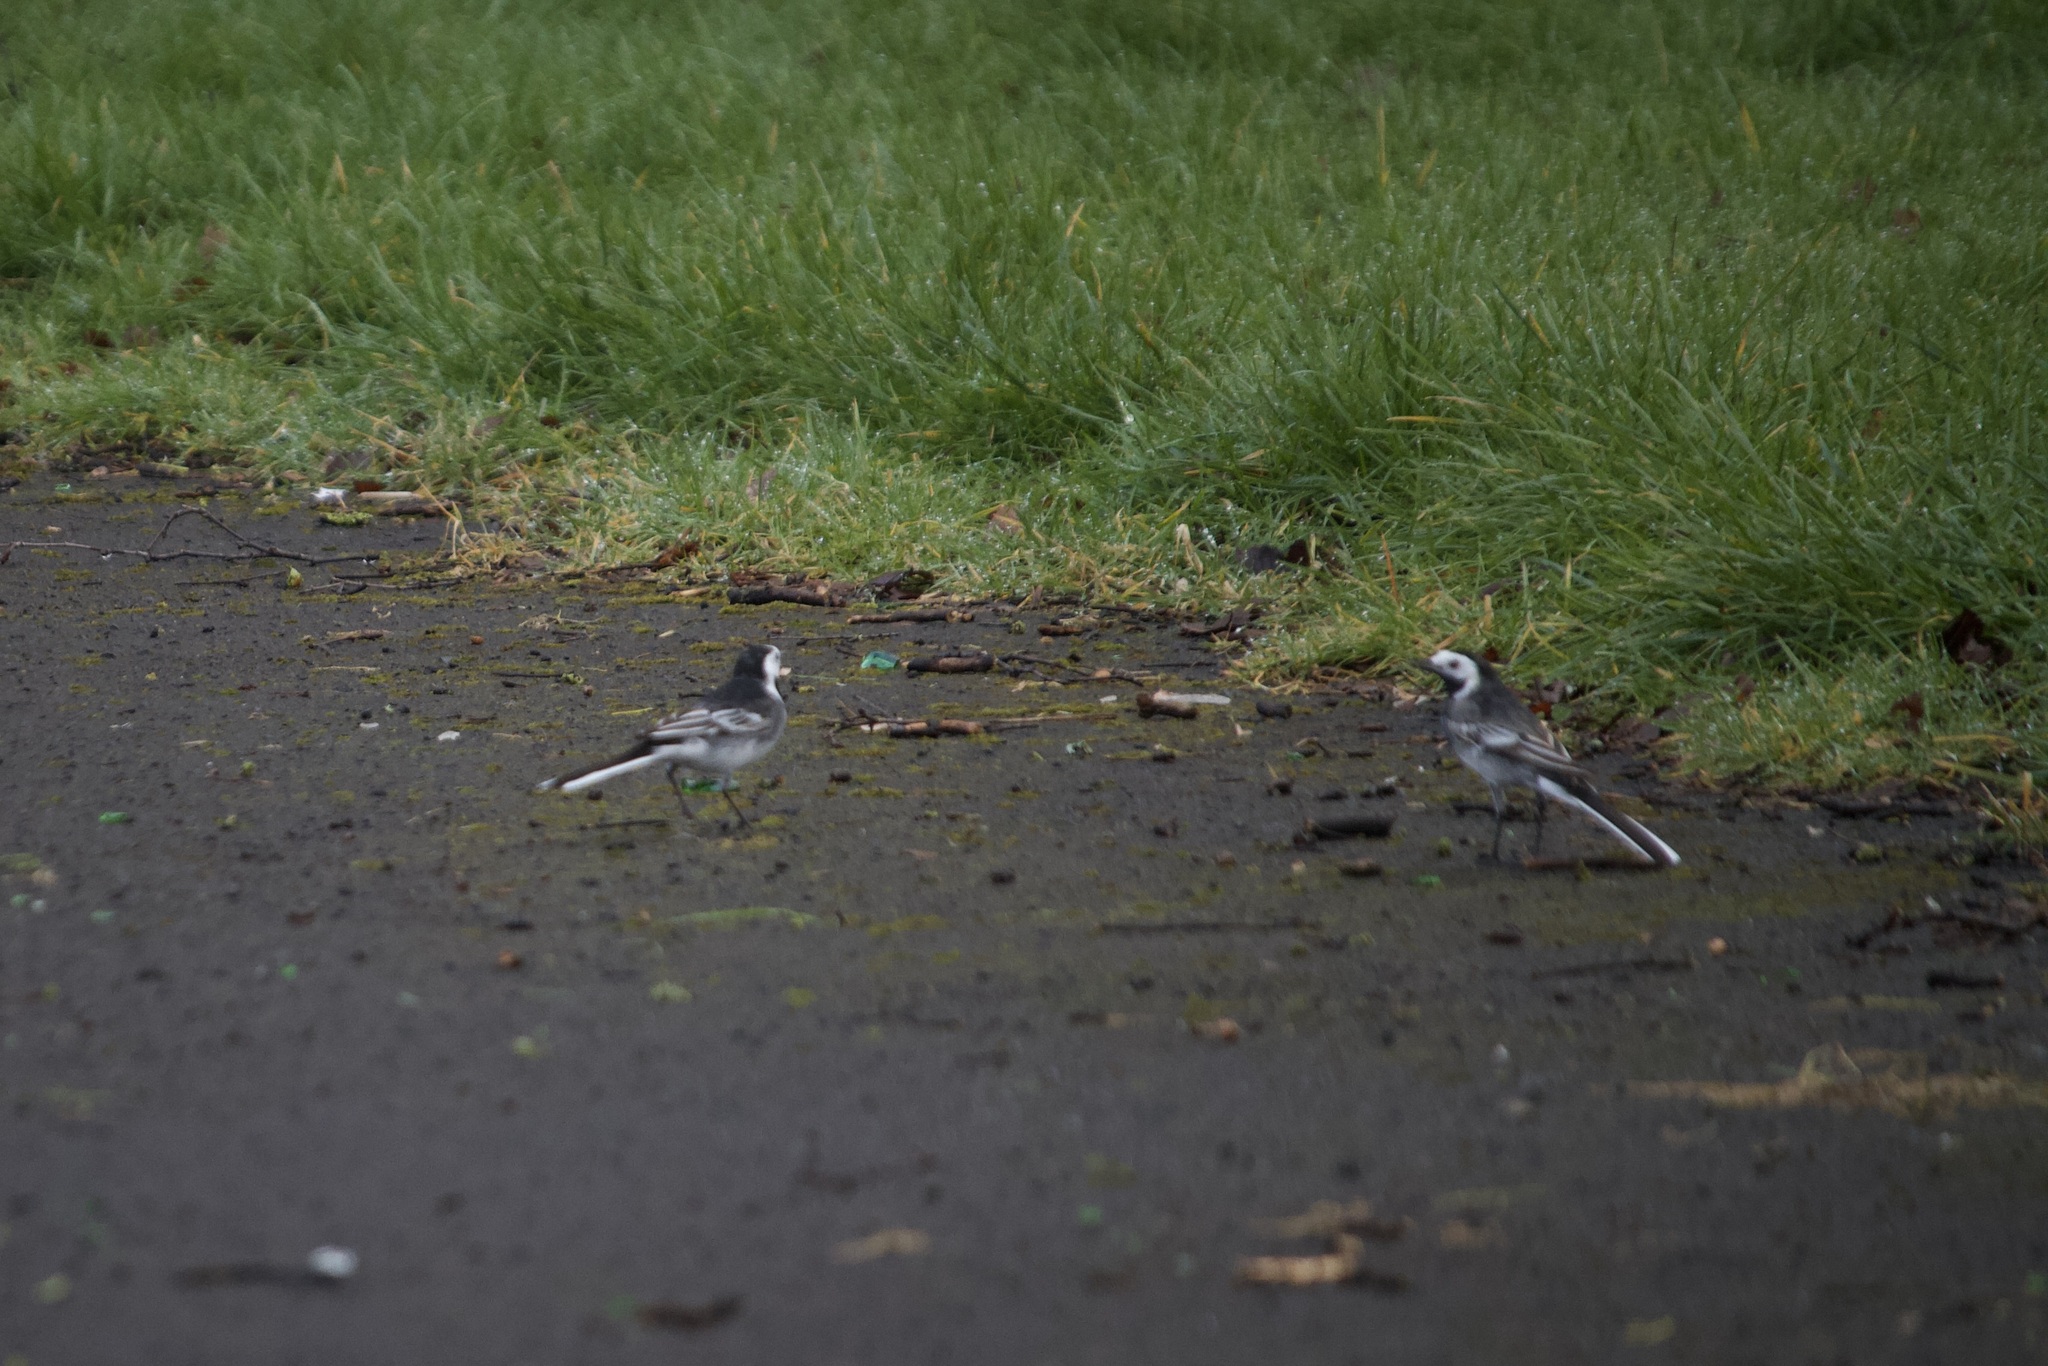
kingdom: Animalia
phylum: Chordata
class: Aves
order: Passeriformes
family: Motacillidae
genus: Motacilla
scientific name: Motacilla alba
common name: White wagtail
